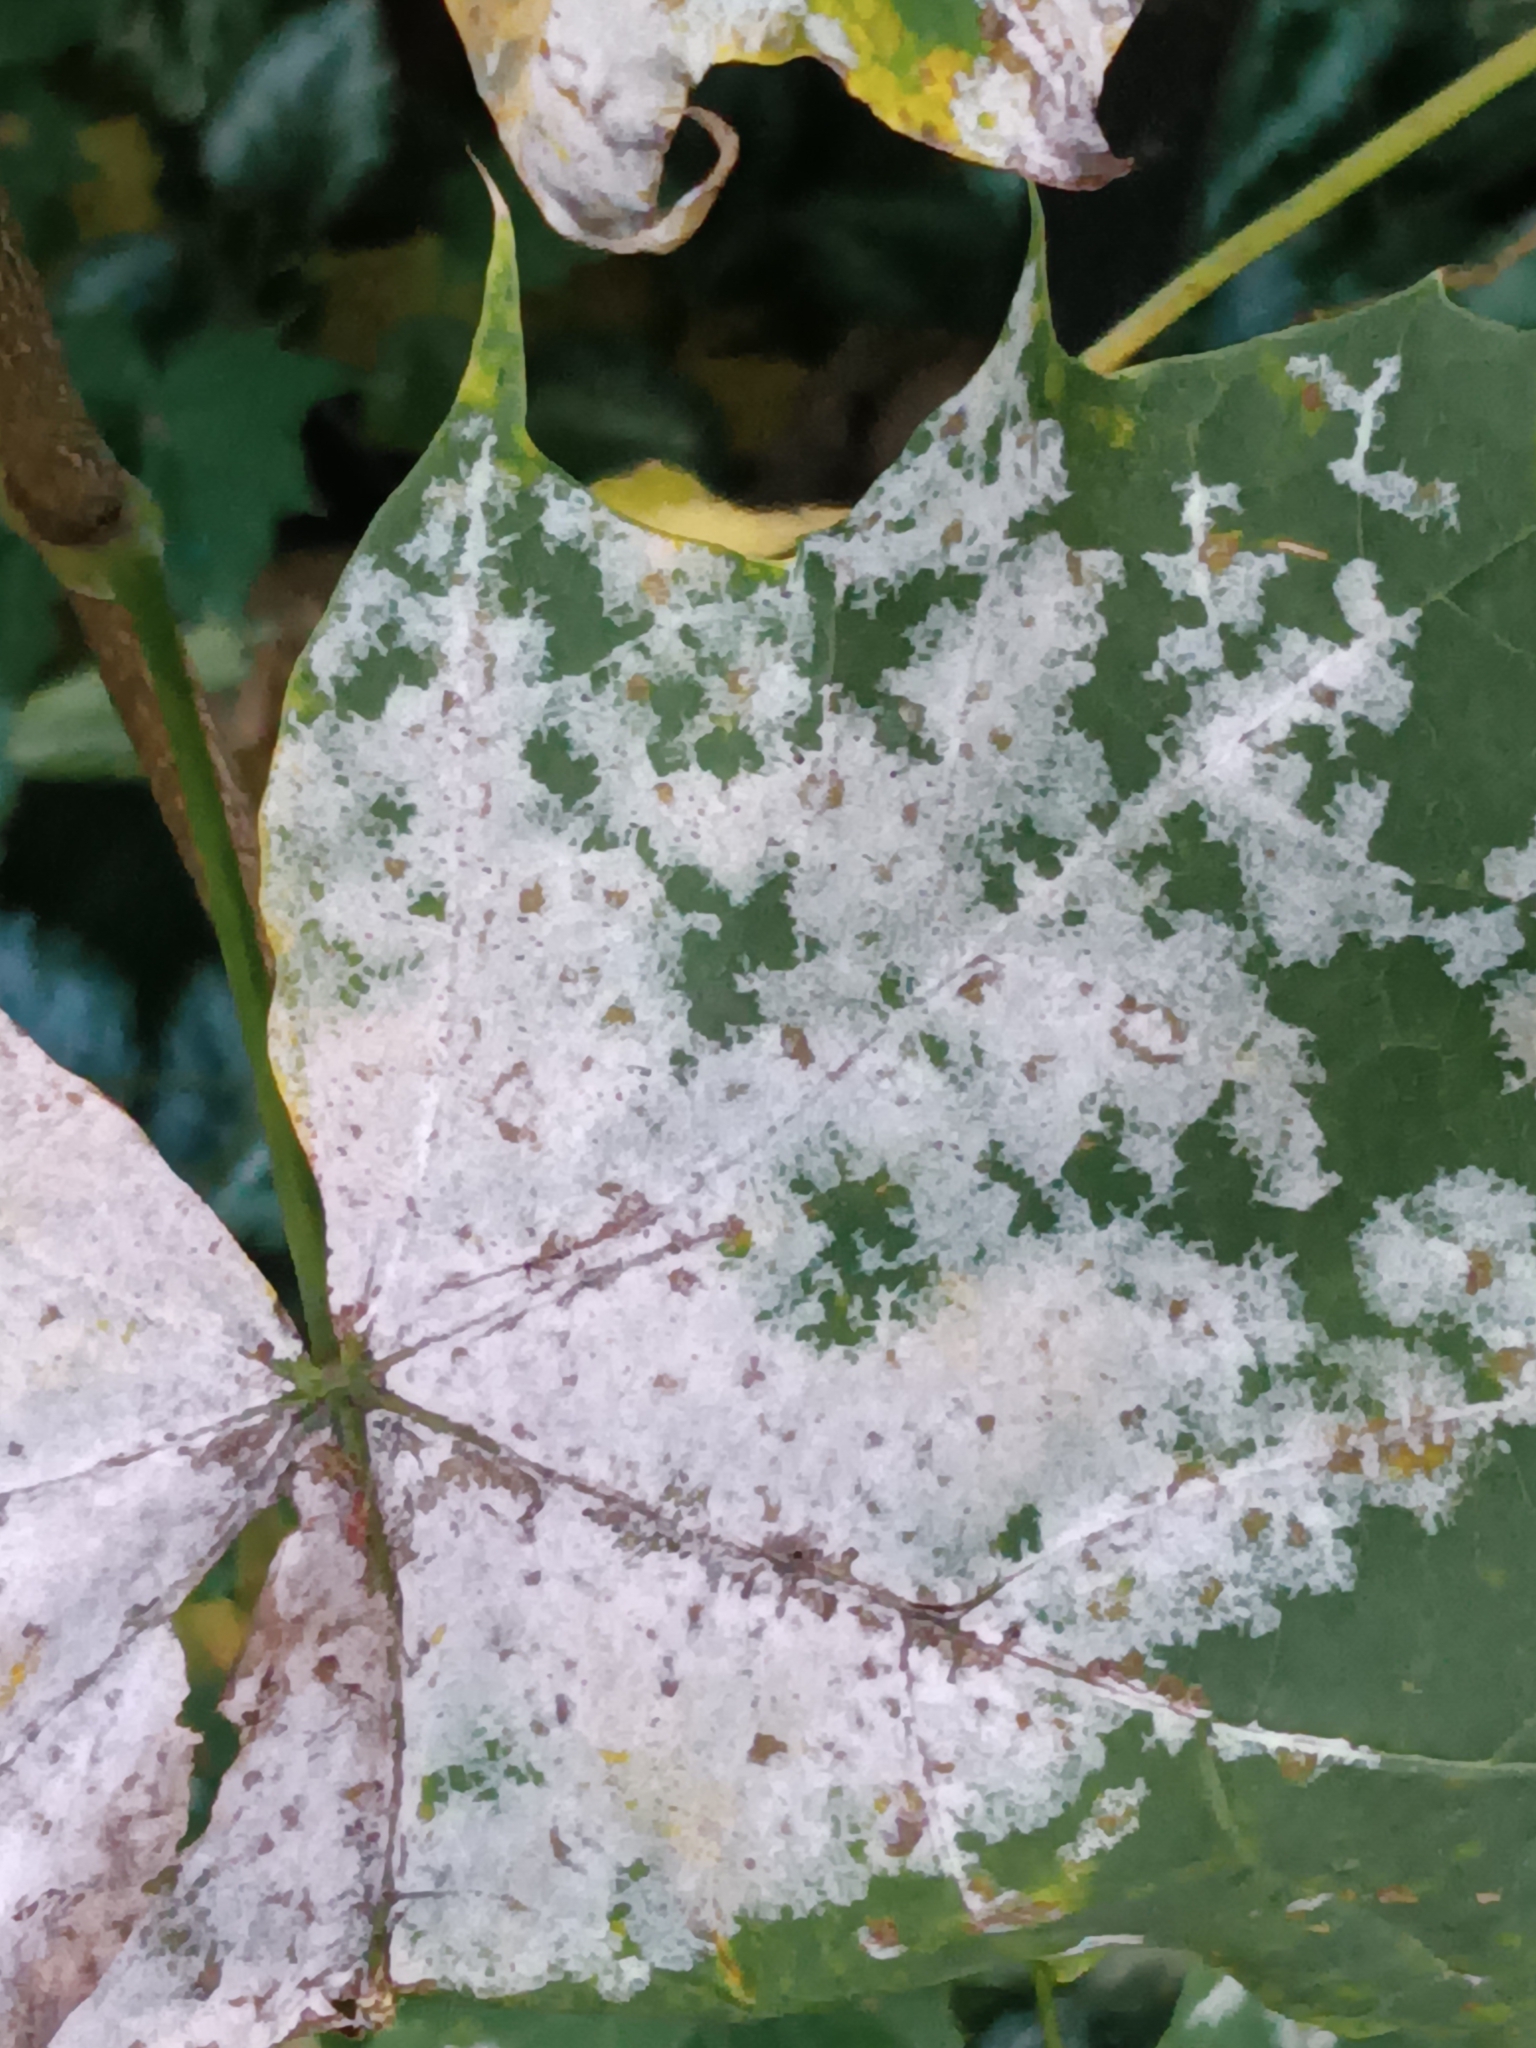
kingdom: Fungi
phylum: Ascomycota
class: Leotiomycetes
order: Helotiales
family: Erysiphaceae
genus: Sawadaea
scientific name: Sawadaea tulasnei
